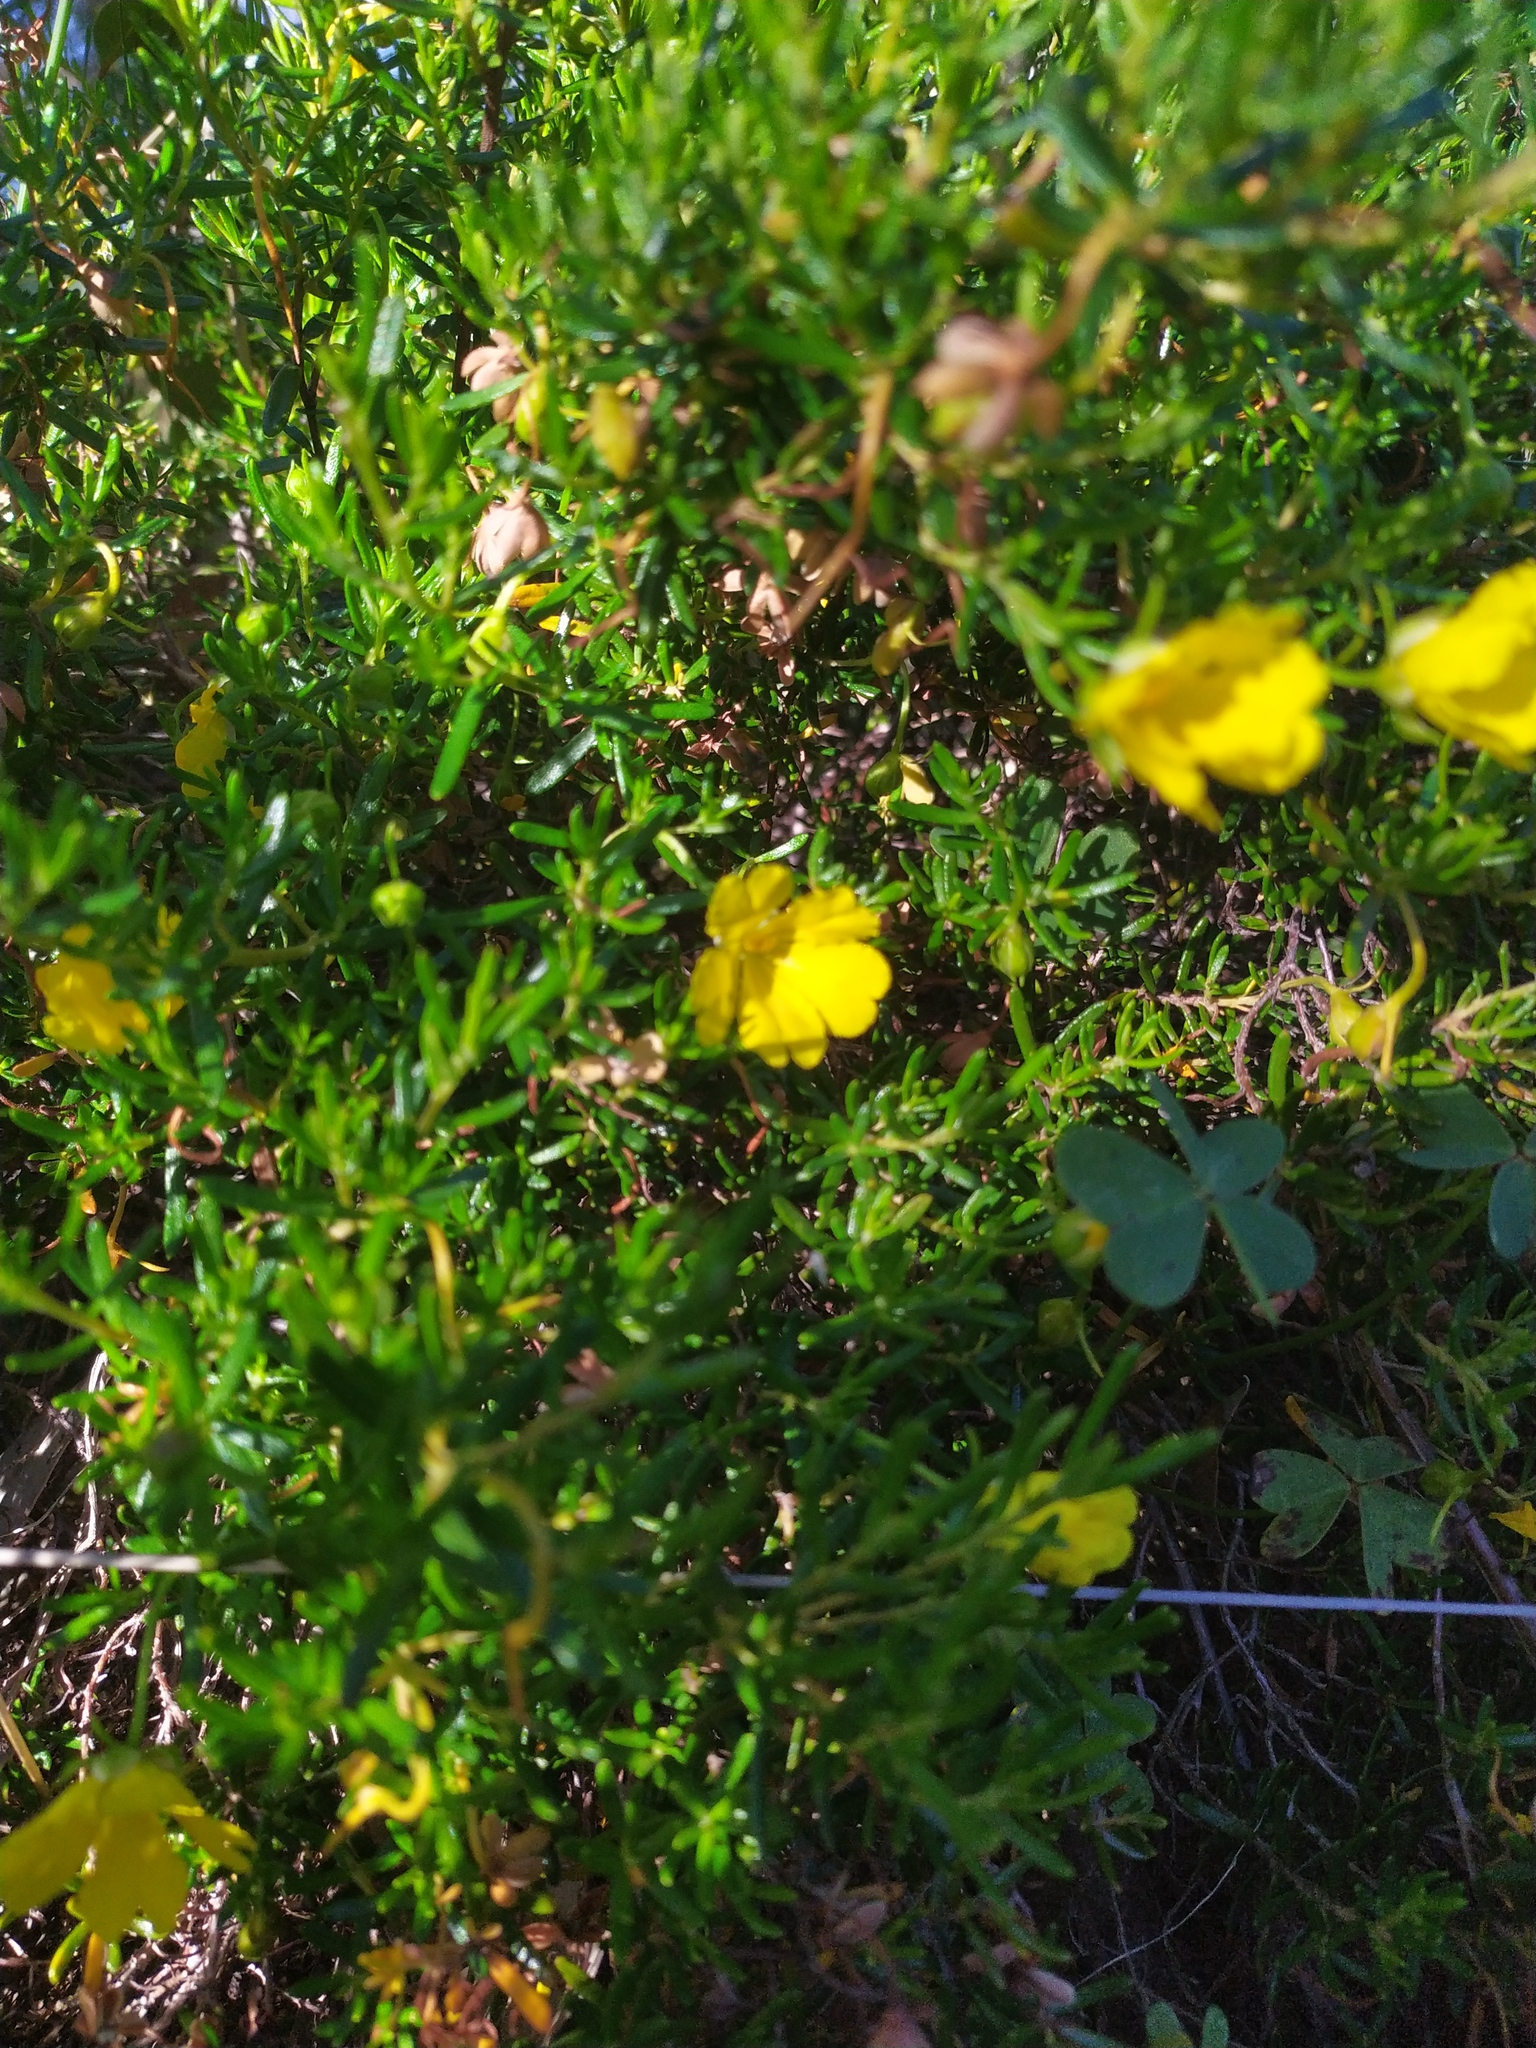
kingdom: Plantae
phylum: Tracheophyta
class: Magnoliopsida
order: Dilleniales
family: Dilleniaceae
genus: Hibbertia
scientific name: Hibbertia hypericoides
